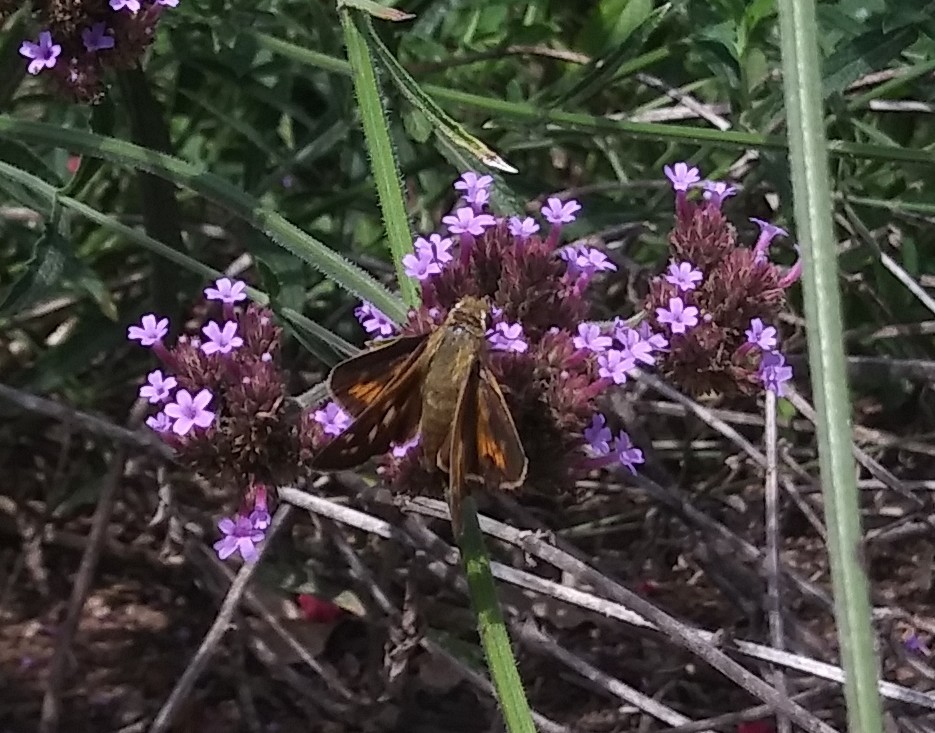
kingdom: Animalia
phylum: Arthropoda
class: Insecta
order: Lepidoptera
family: Hesperiidae
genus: Atalopedes
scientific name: Atalopedes
